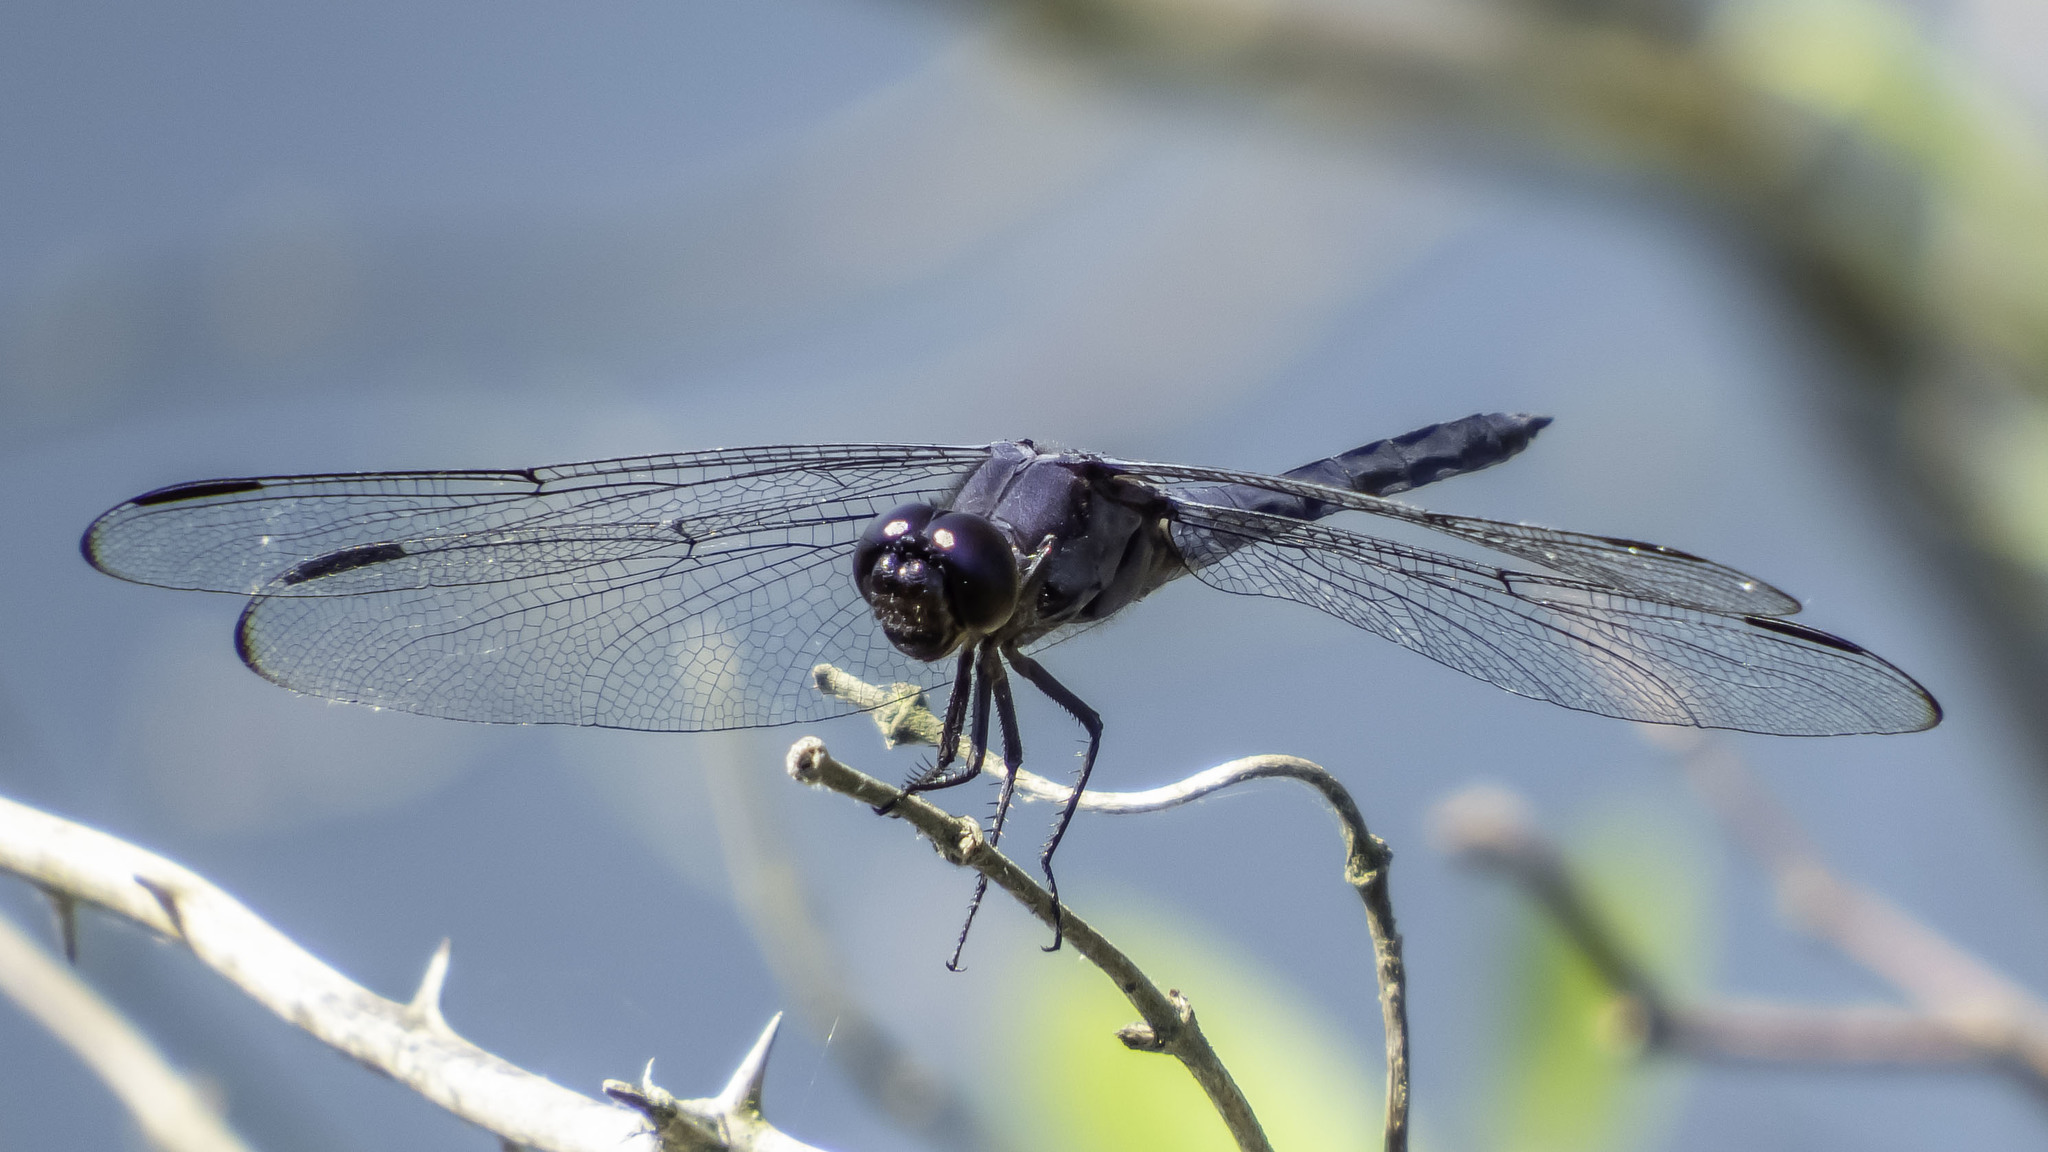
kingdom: Animalia
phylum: Arthropoda
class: Insecta
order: Odonata
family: Libellulidae
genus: Libellula
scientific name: Libellula incesta
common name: Slaty skimmer
